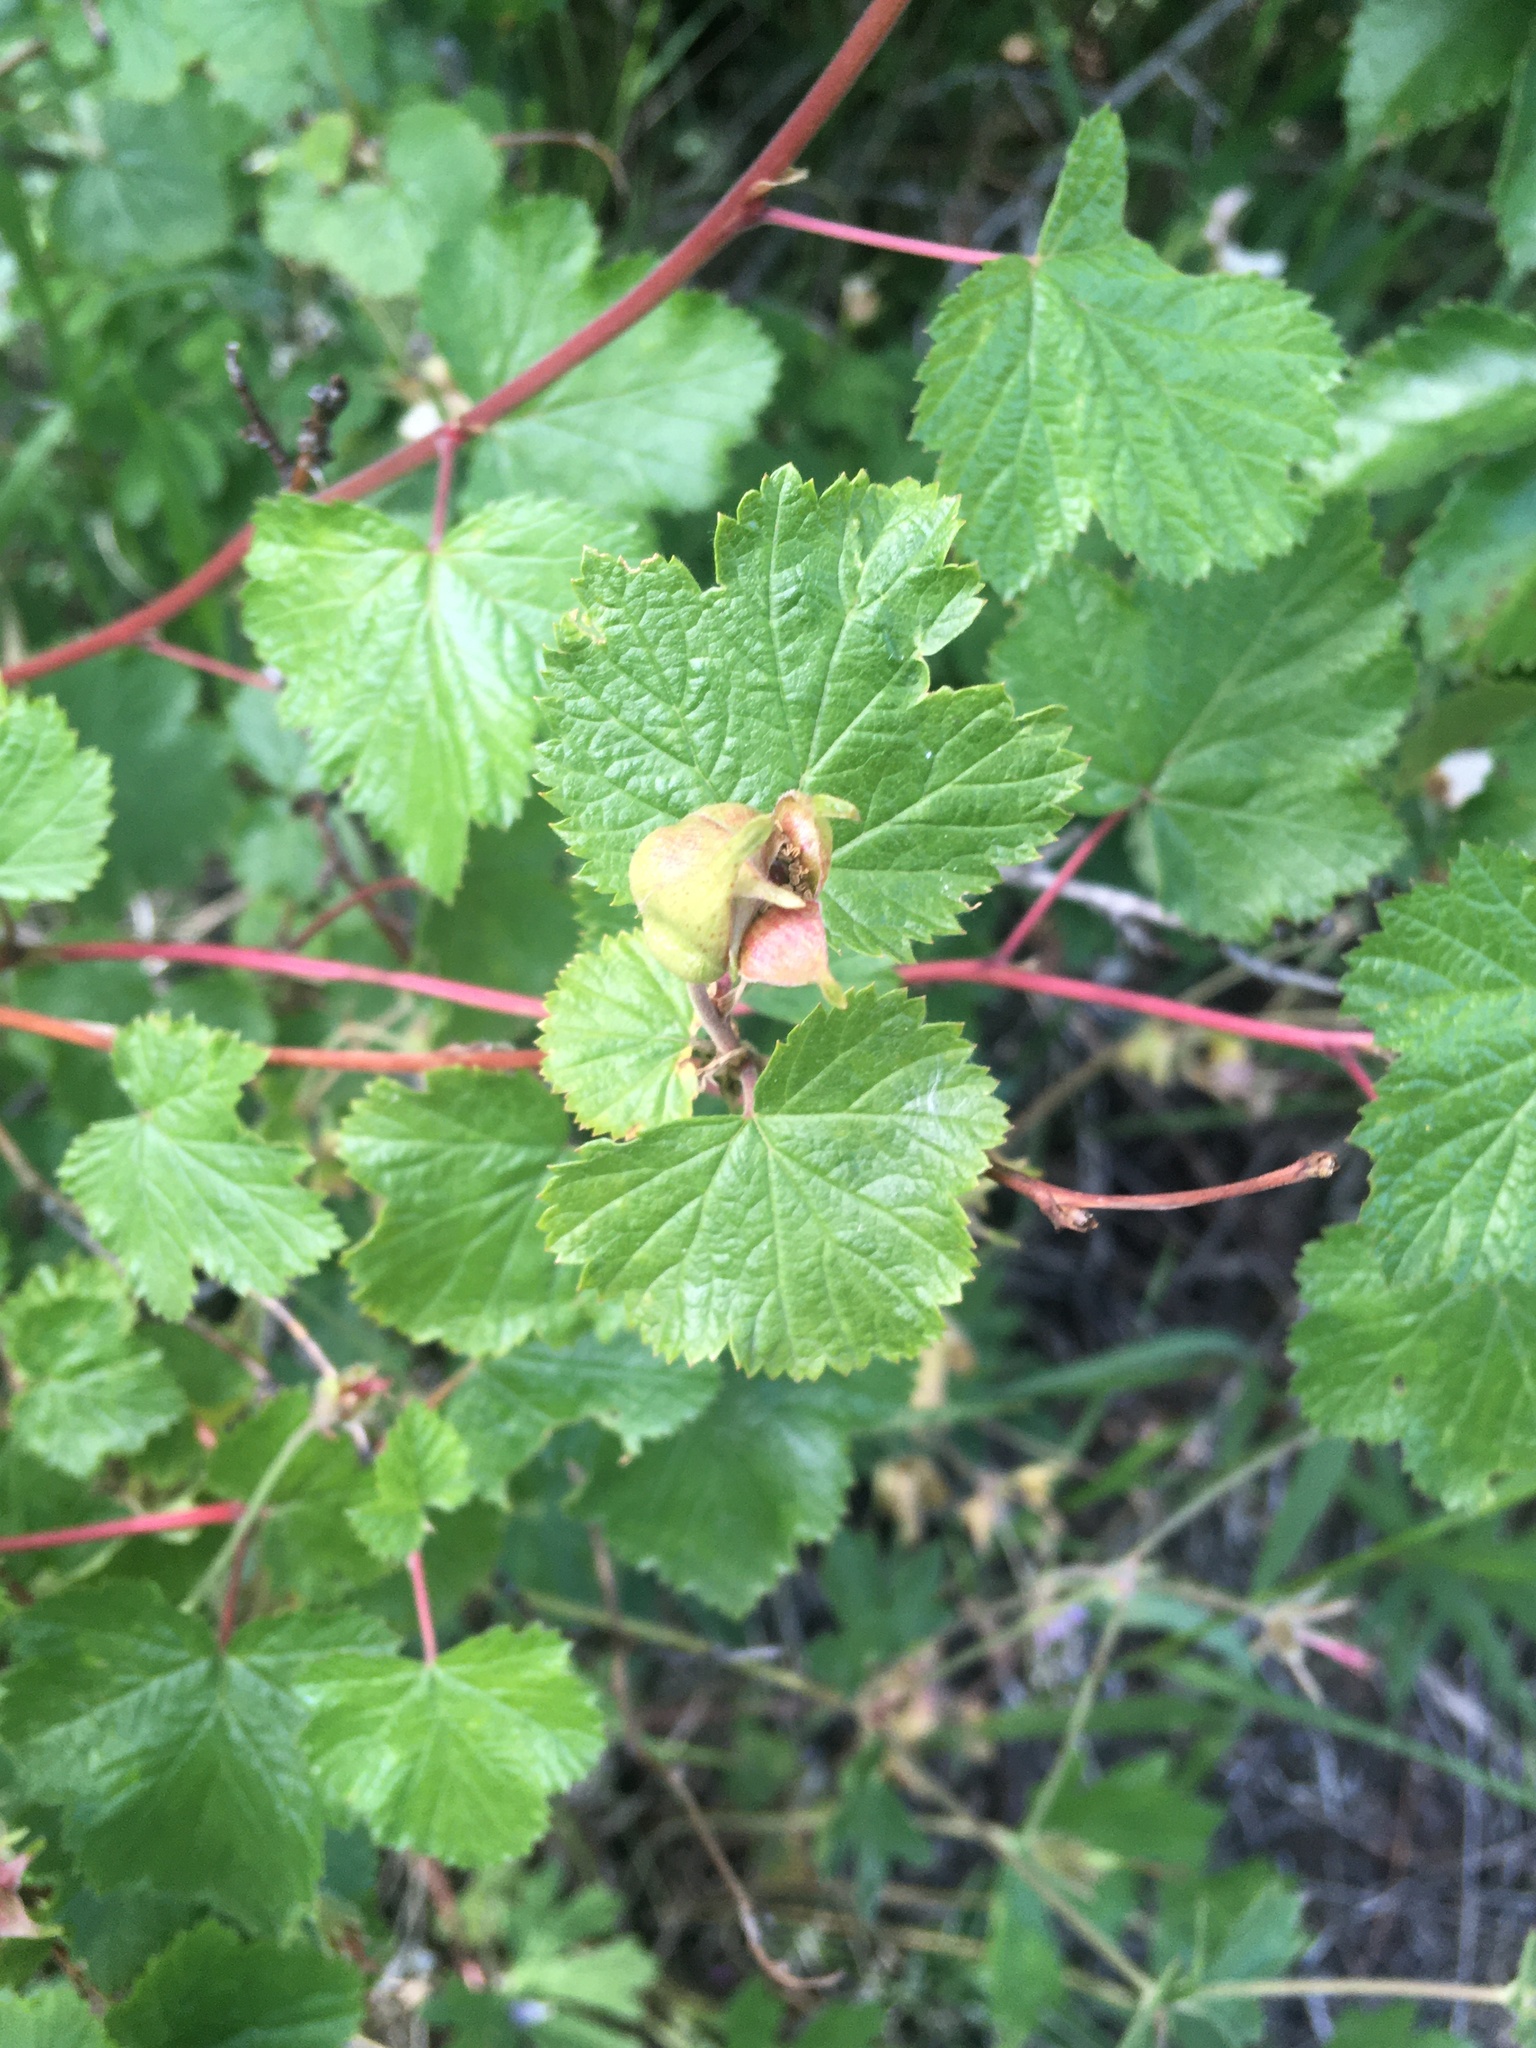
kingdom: Plantae
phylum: Tracheophyta
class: Magnoliopsida
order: Rosales
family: Rosaceae
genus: Rubus
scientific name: Rubus deliciosus
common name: Rocky mountain raspberry
